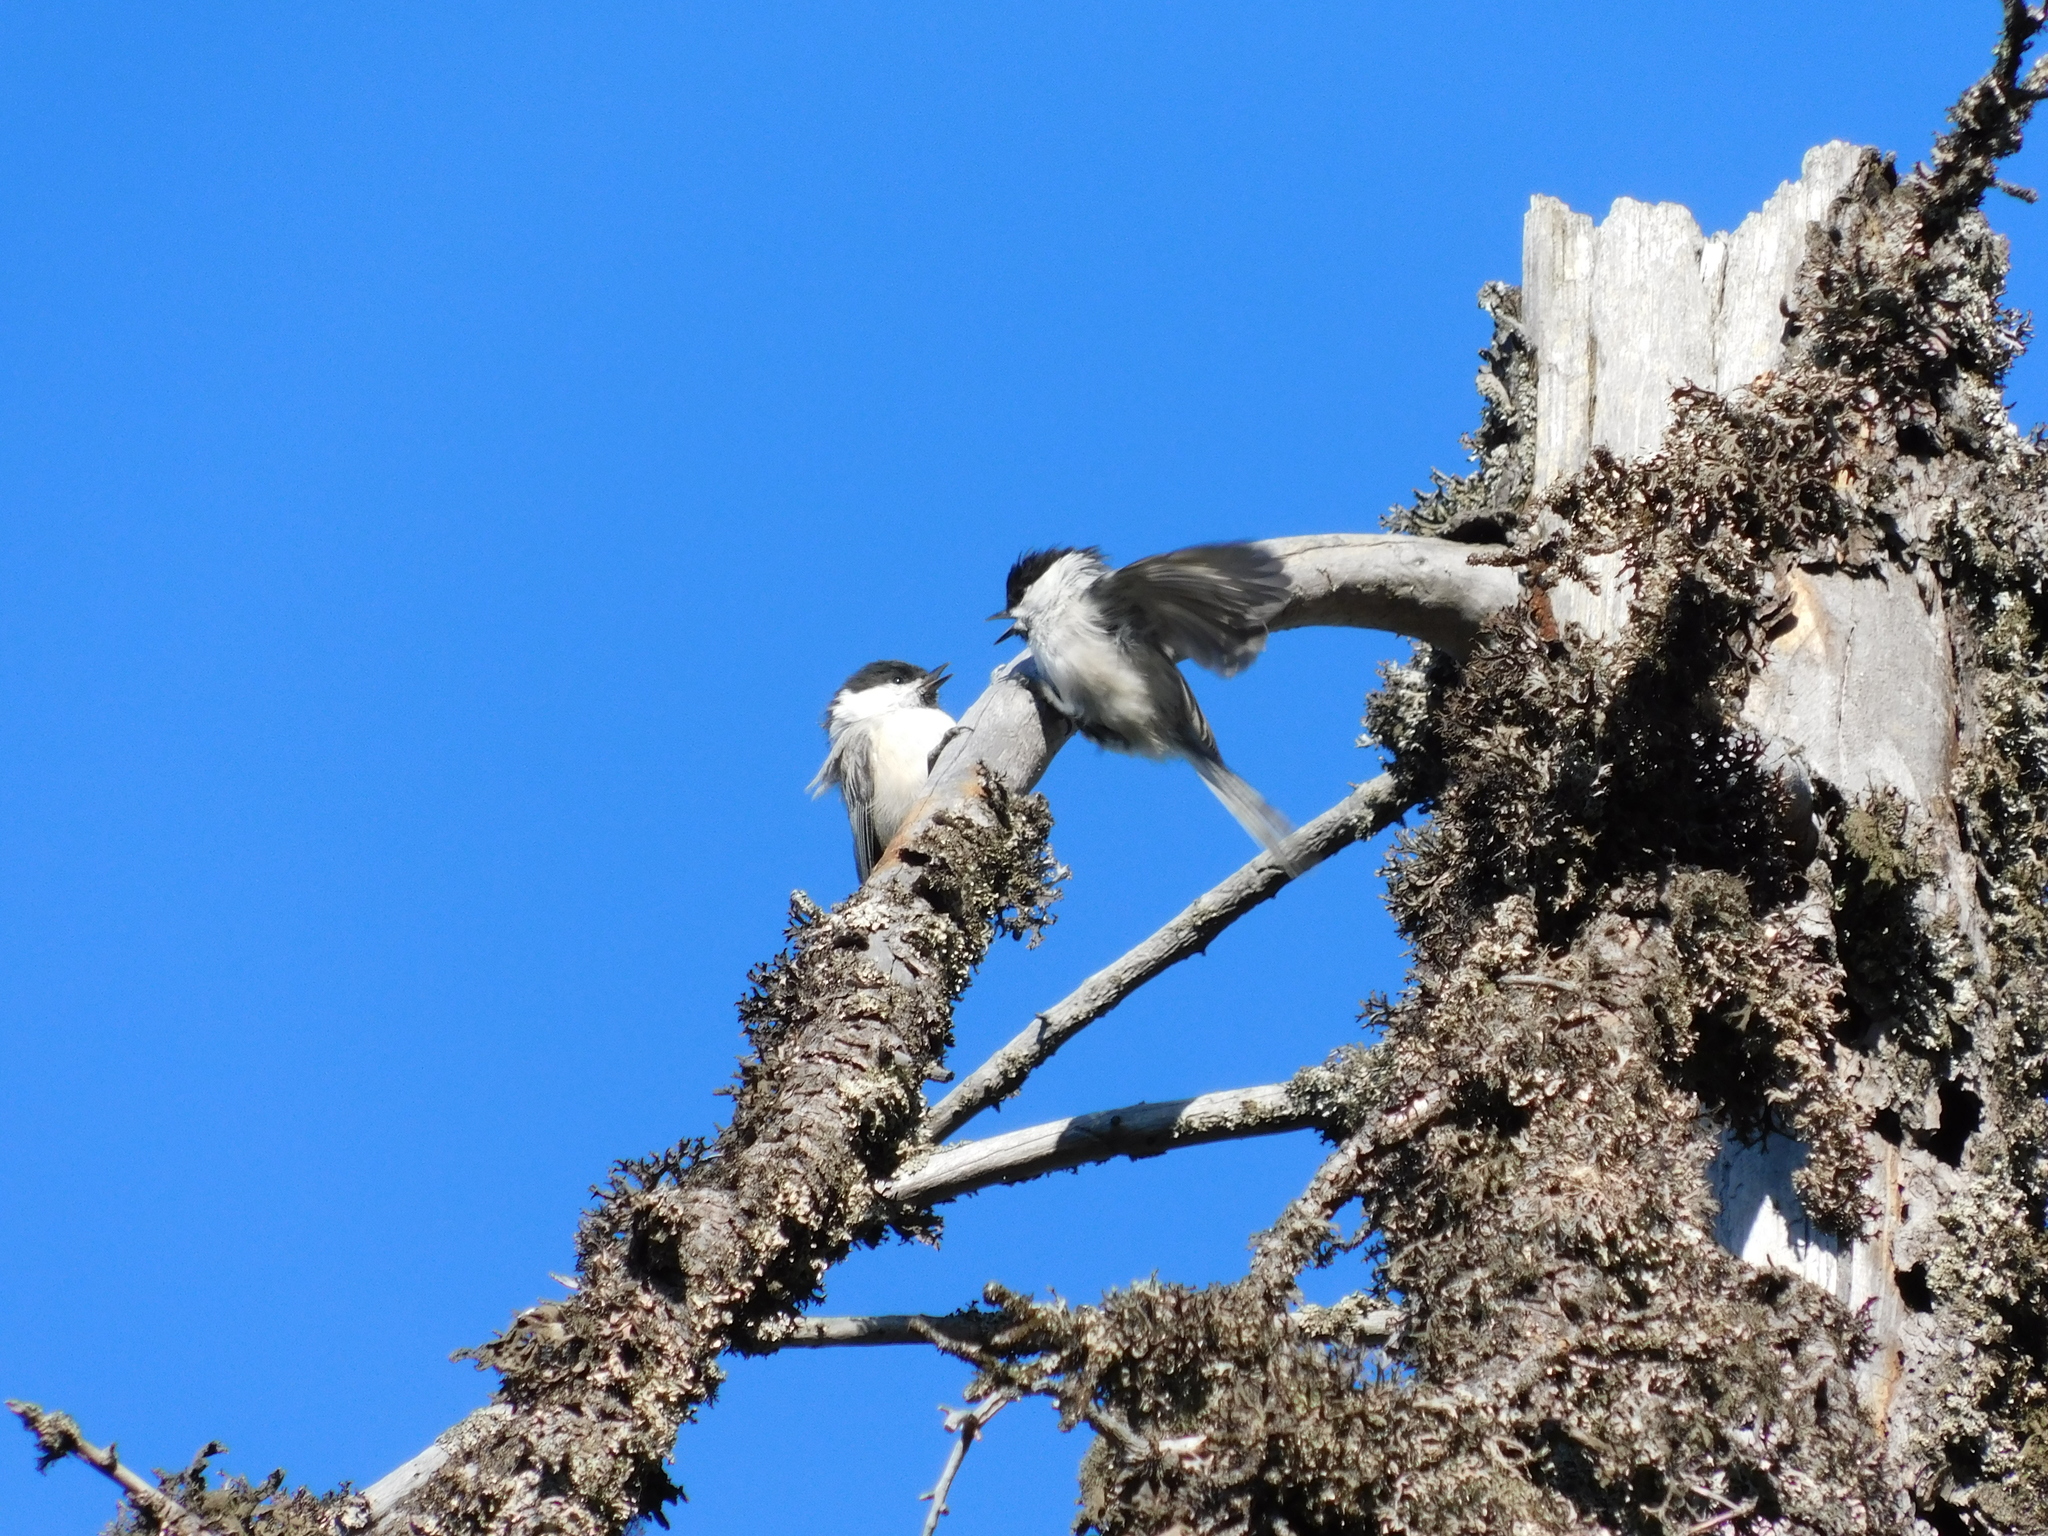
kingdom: Animalia
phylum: Chordata
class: Aves
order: Passeriformes
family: Paridae
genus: Poecile
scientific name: Poecile montanus
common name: Willow tit
